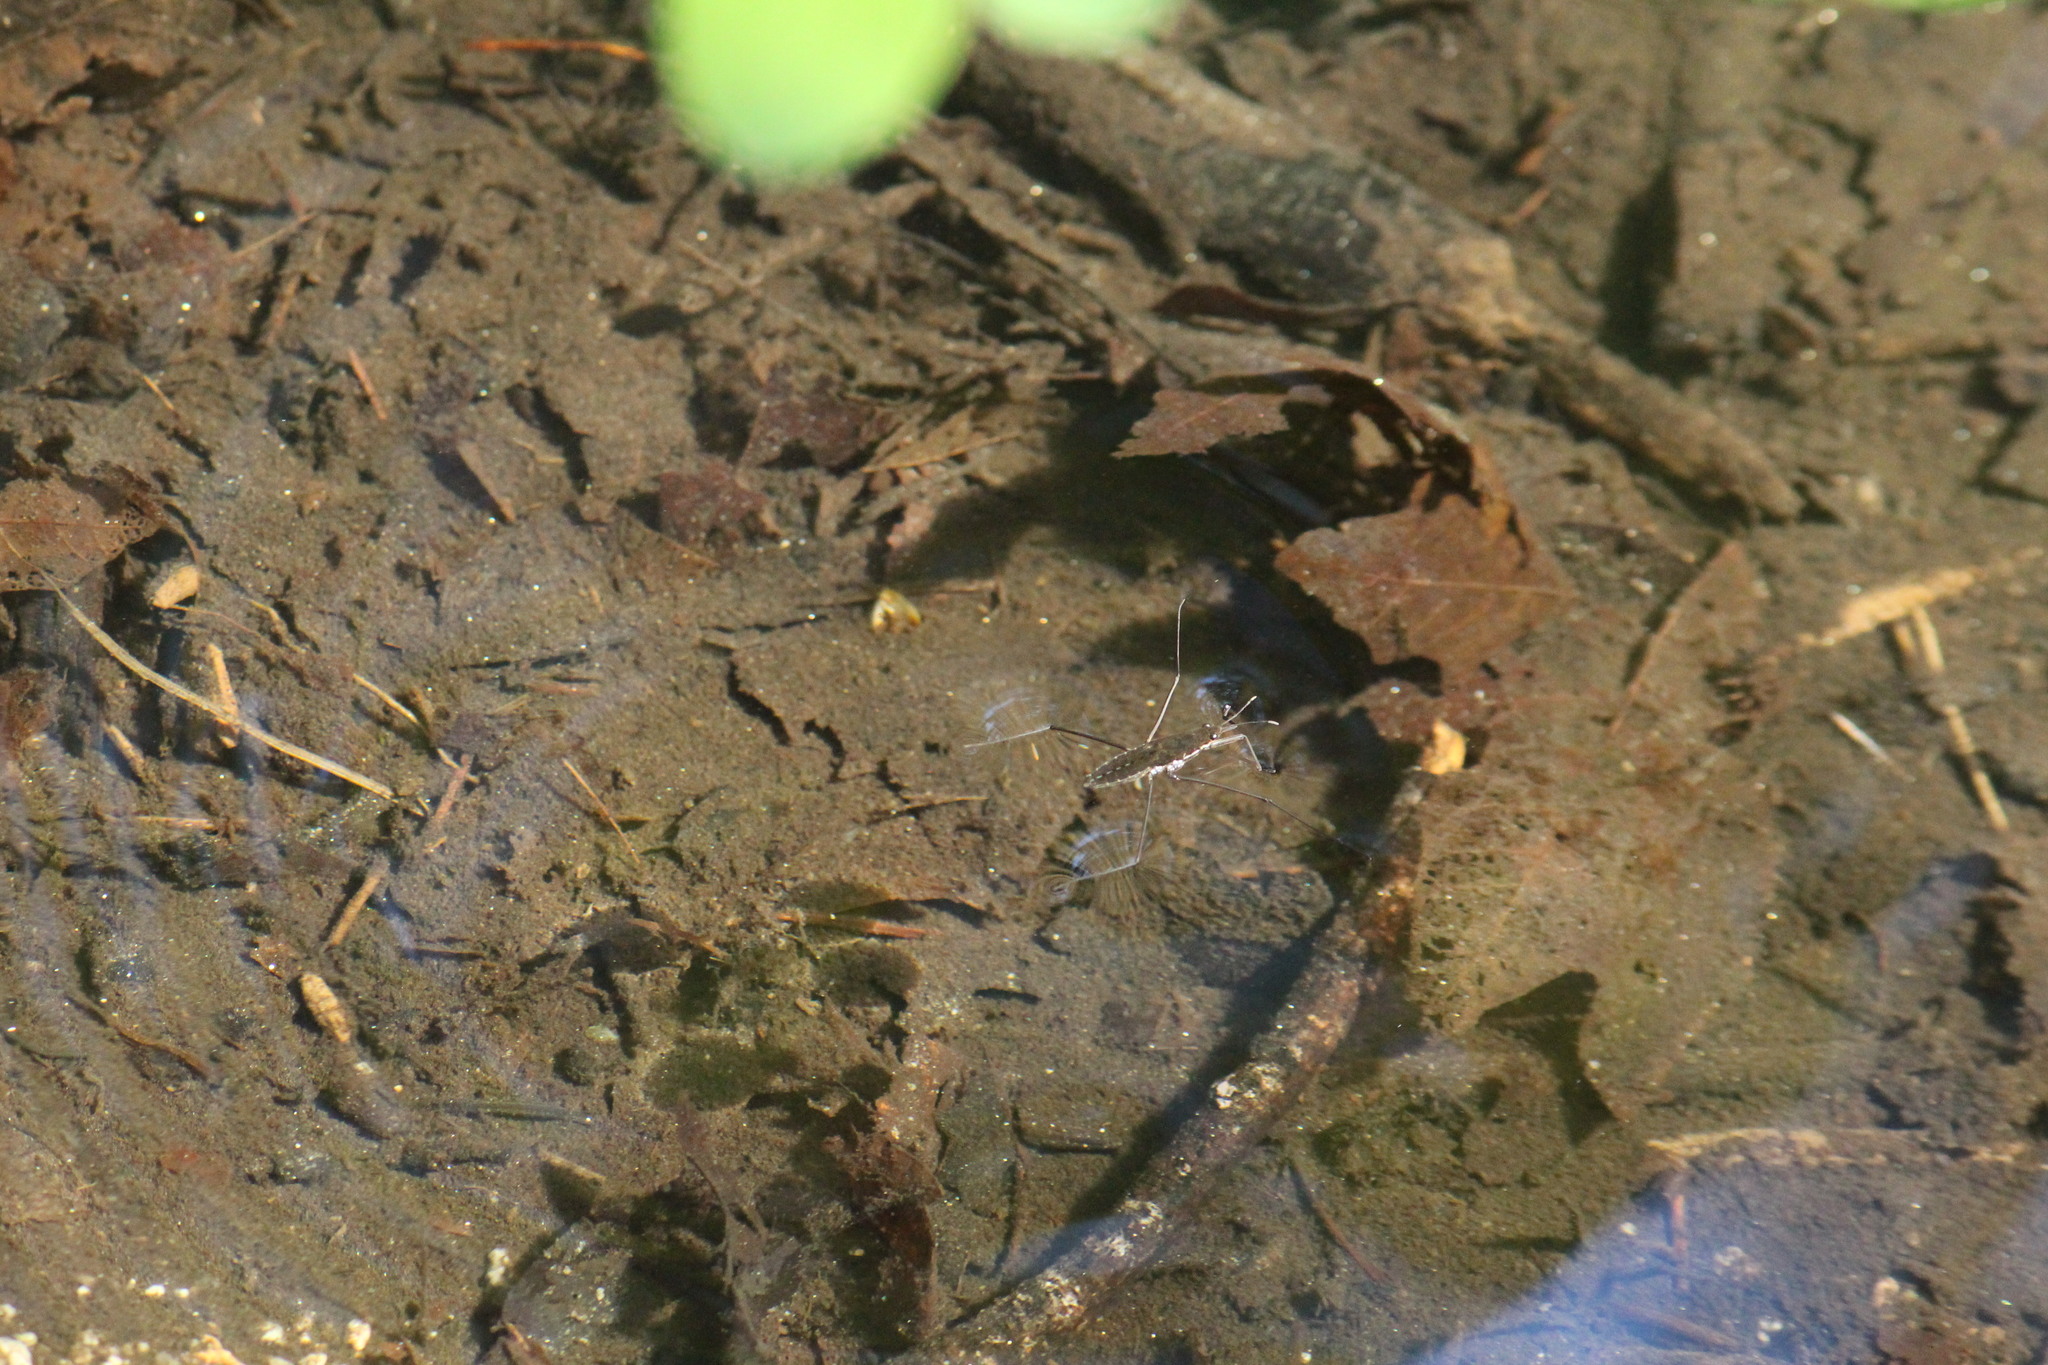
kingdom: Animalia
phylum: Arthropoda
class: Insecta
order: Hemiptera
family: Gerridae
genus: Aquarius
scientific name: Aquarius remigis
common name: Common water strider
